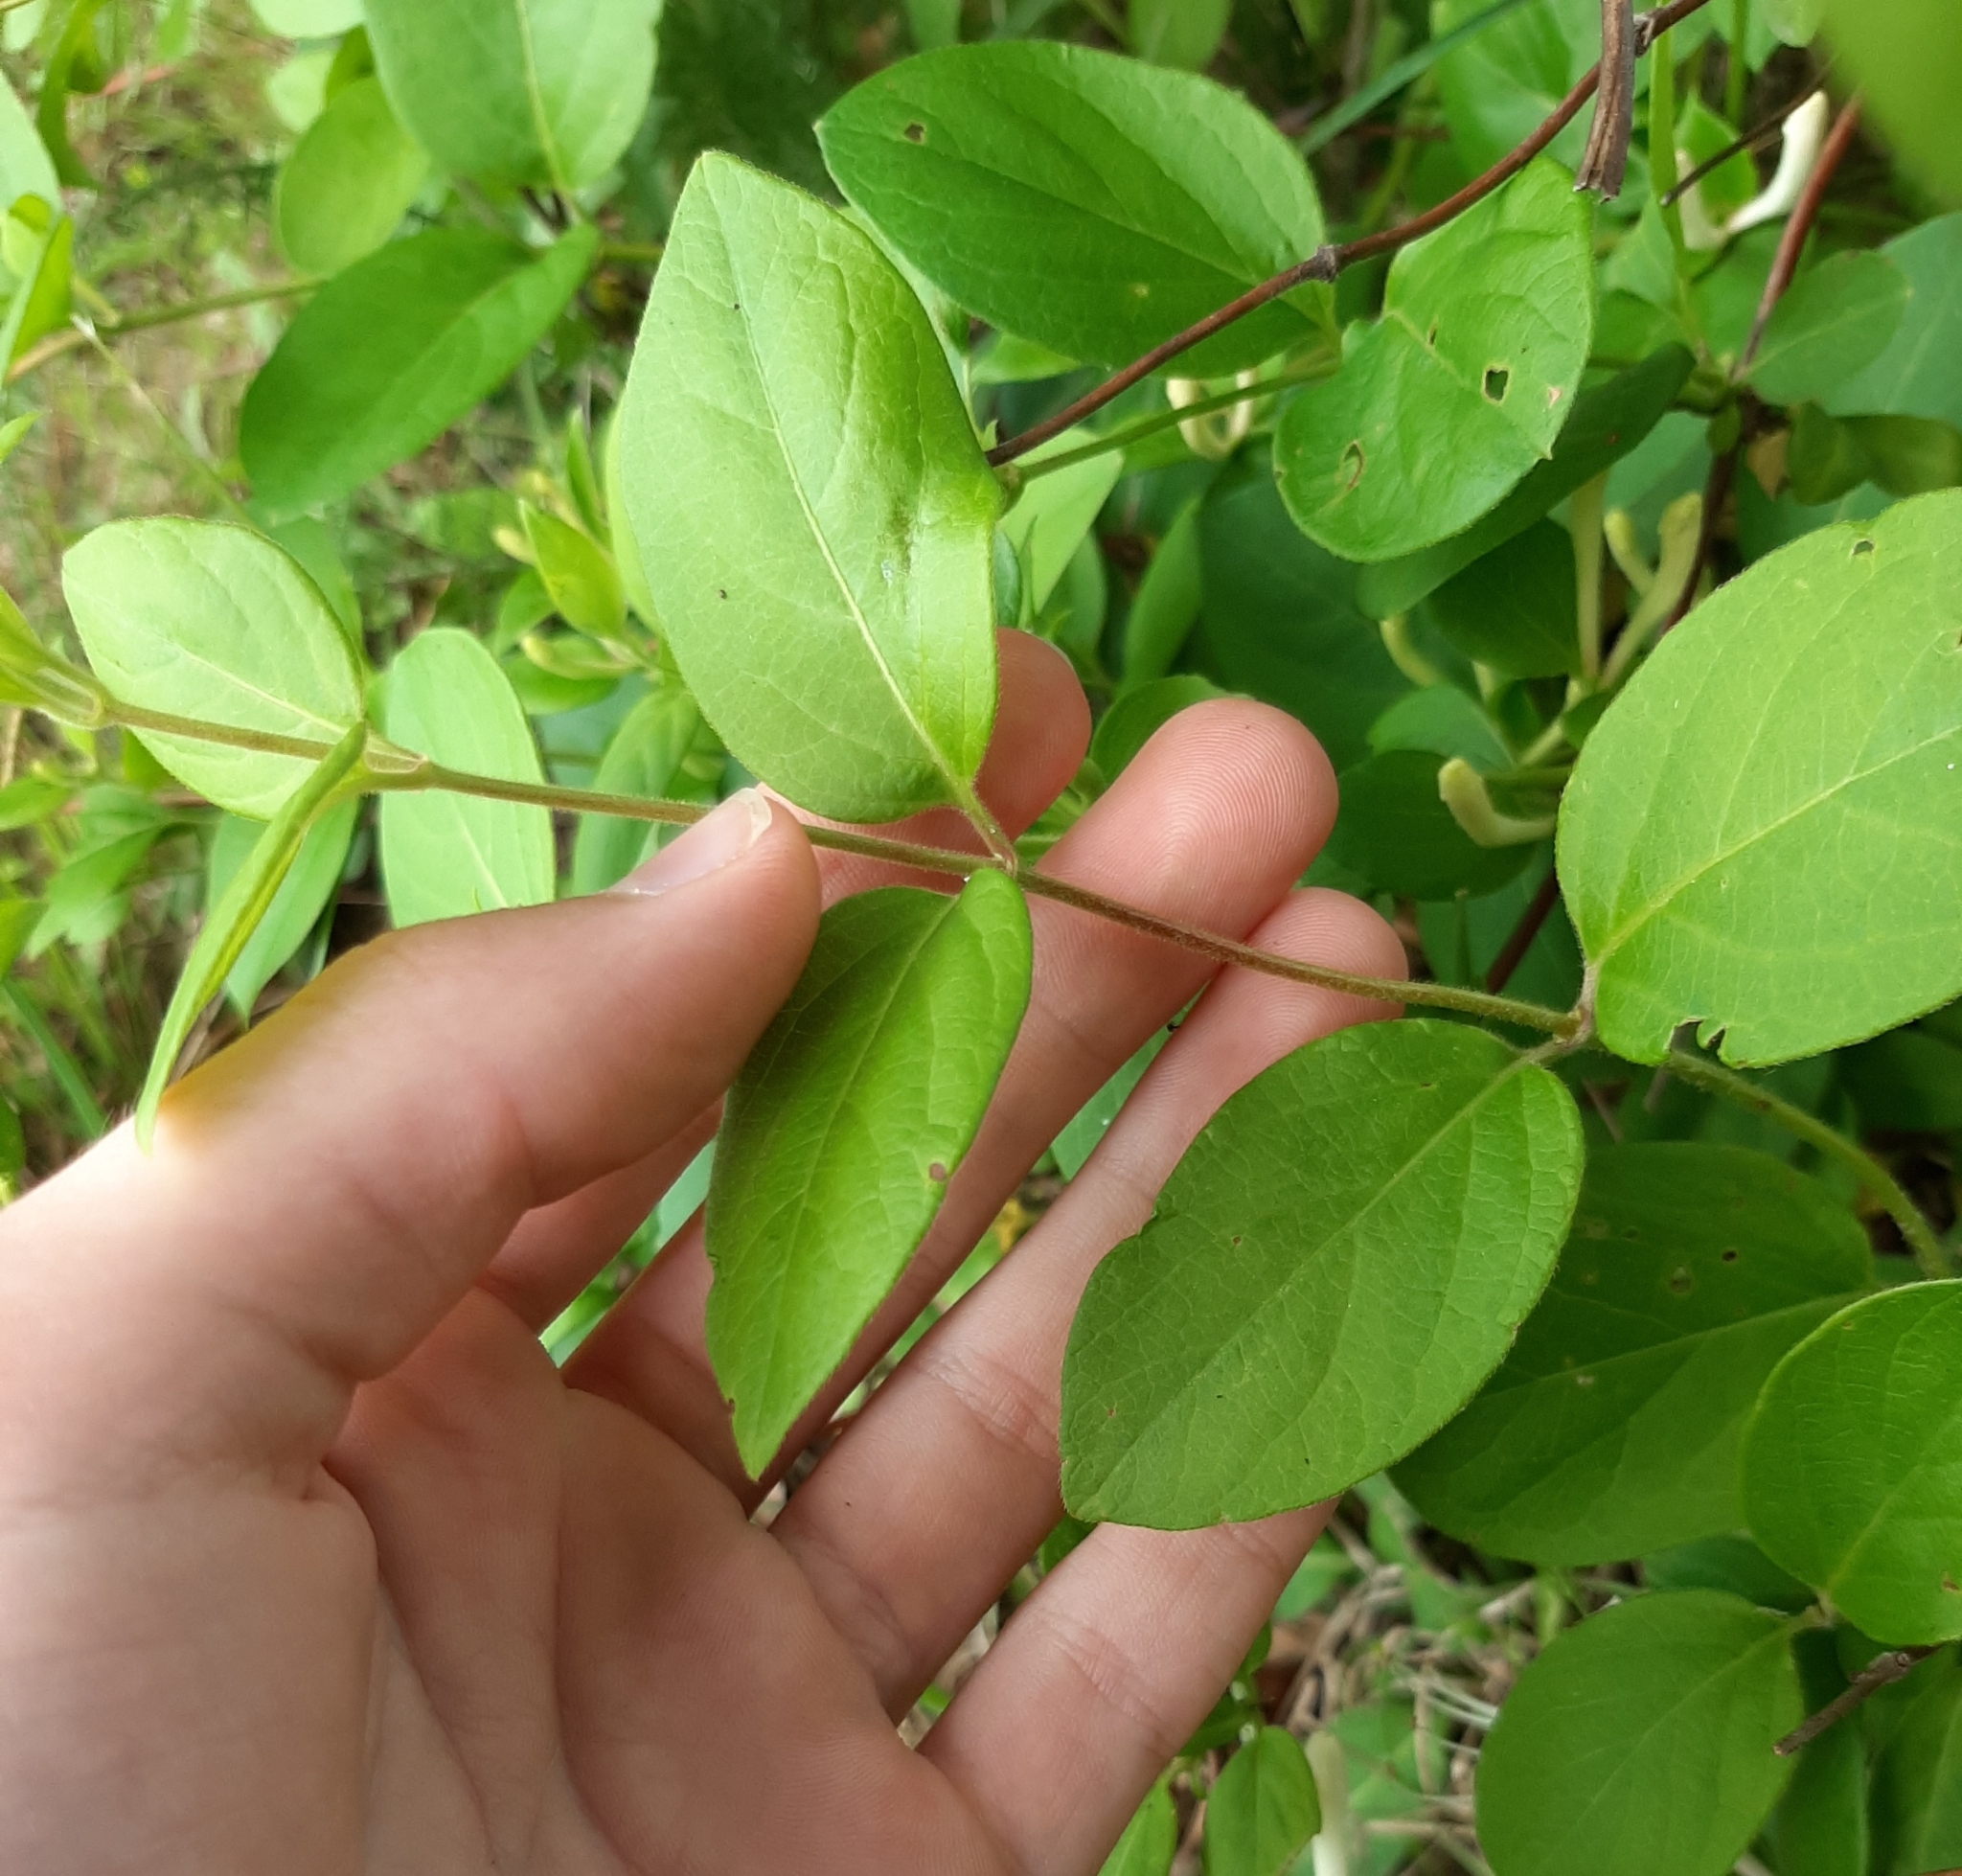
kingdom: Plantae
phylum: Tracheophyta
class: Magnoliopsida
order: Dipsacales
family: Caprifoliaceae
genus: Lonicera
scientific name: Lonicera japonica
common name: Japanese honeysuckle
